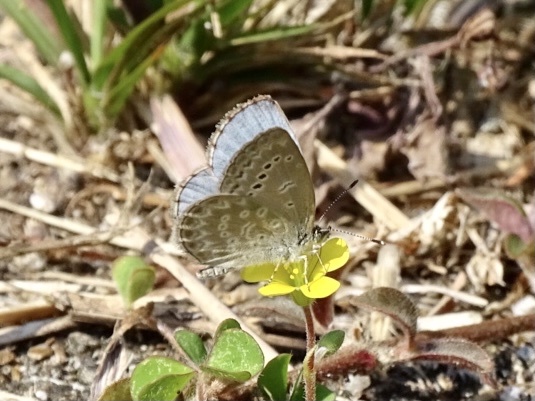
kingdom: Animalia
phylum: Arthropoda
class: Insecta
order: Lepidoptera
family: Lycaenidae
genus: Pseudozizeeria
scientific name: Pseudozizeeria maha
